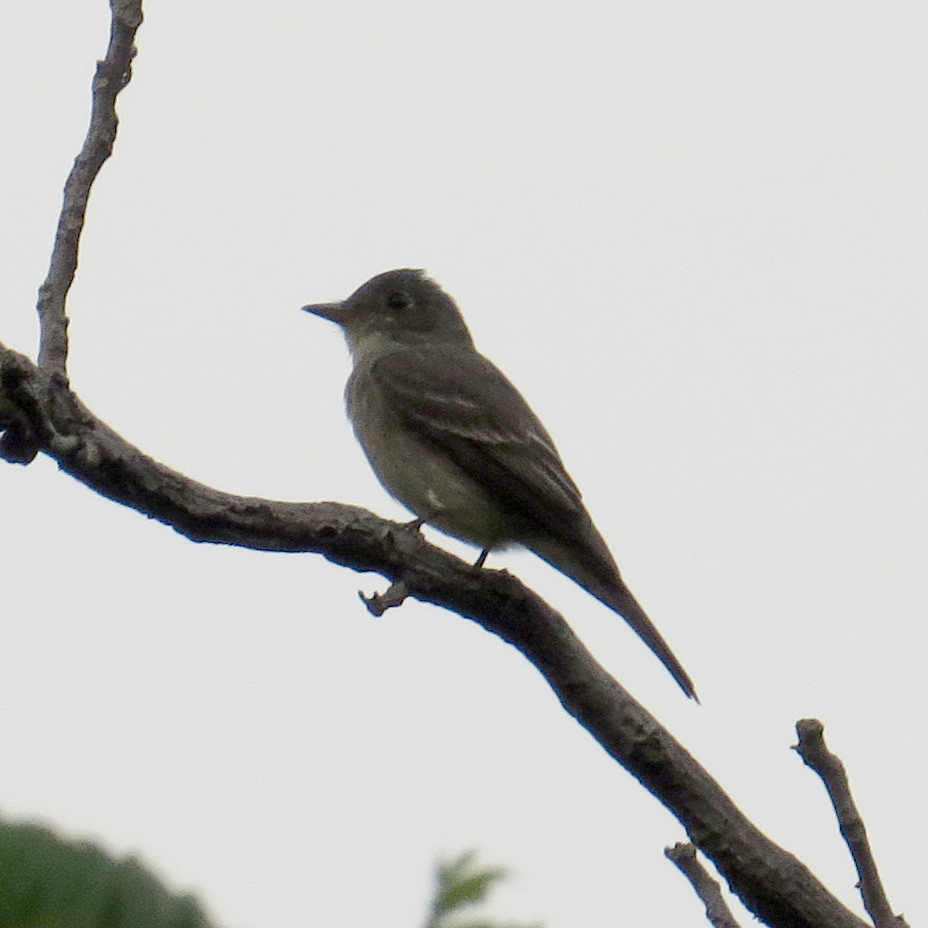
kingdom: Animalia
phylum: Chordata
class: Aves
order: Passeriformes
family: Tyrannidae
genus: Contopus
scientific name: Contopus virens
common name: Eastern wood-pewee
